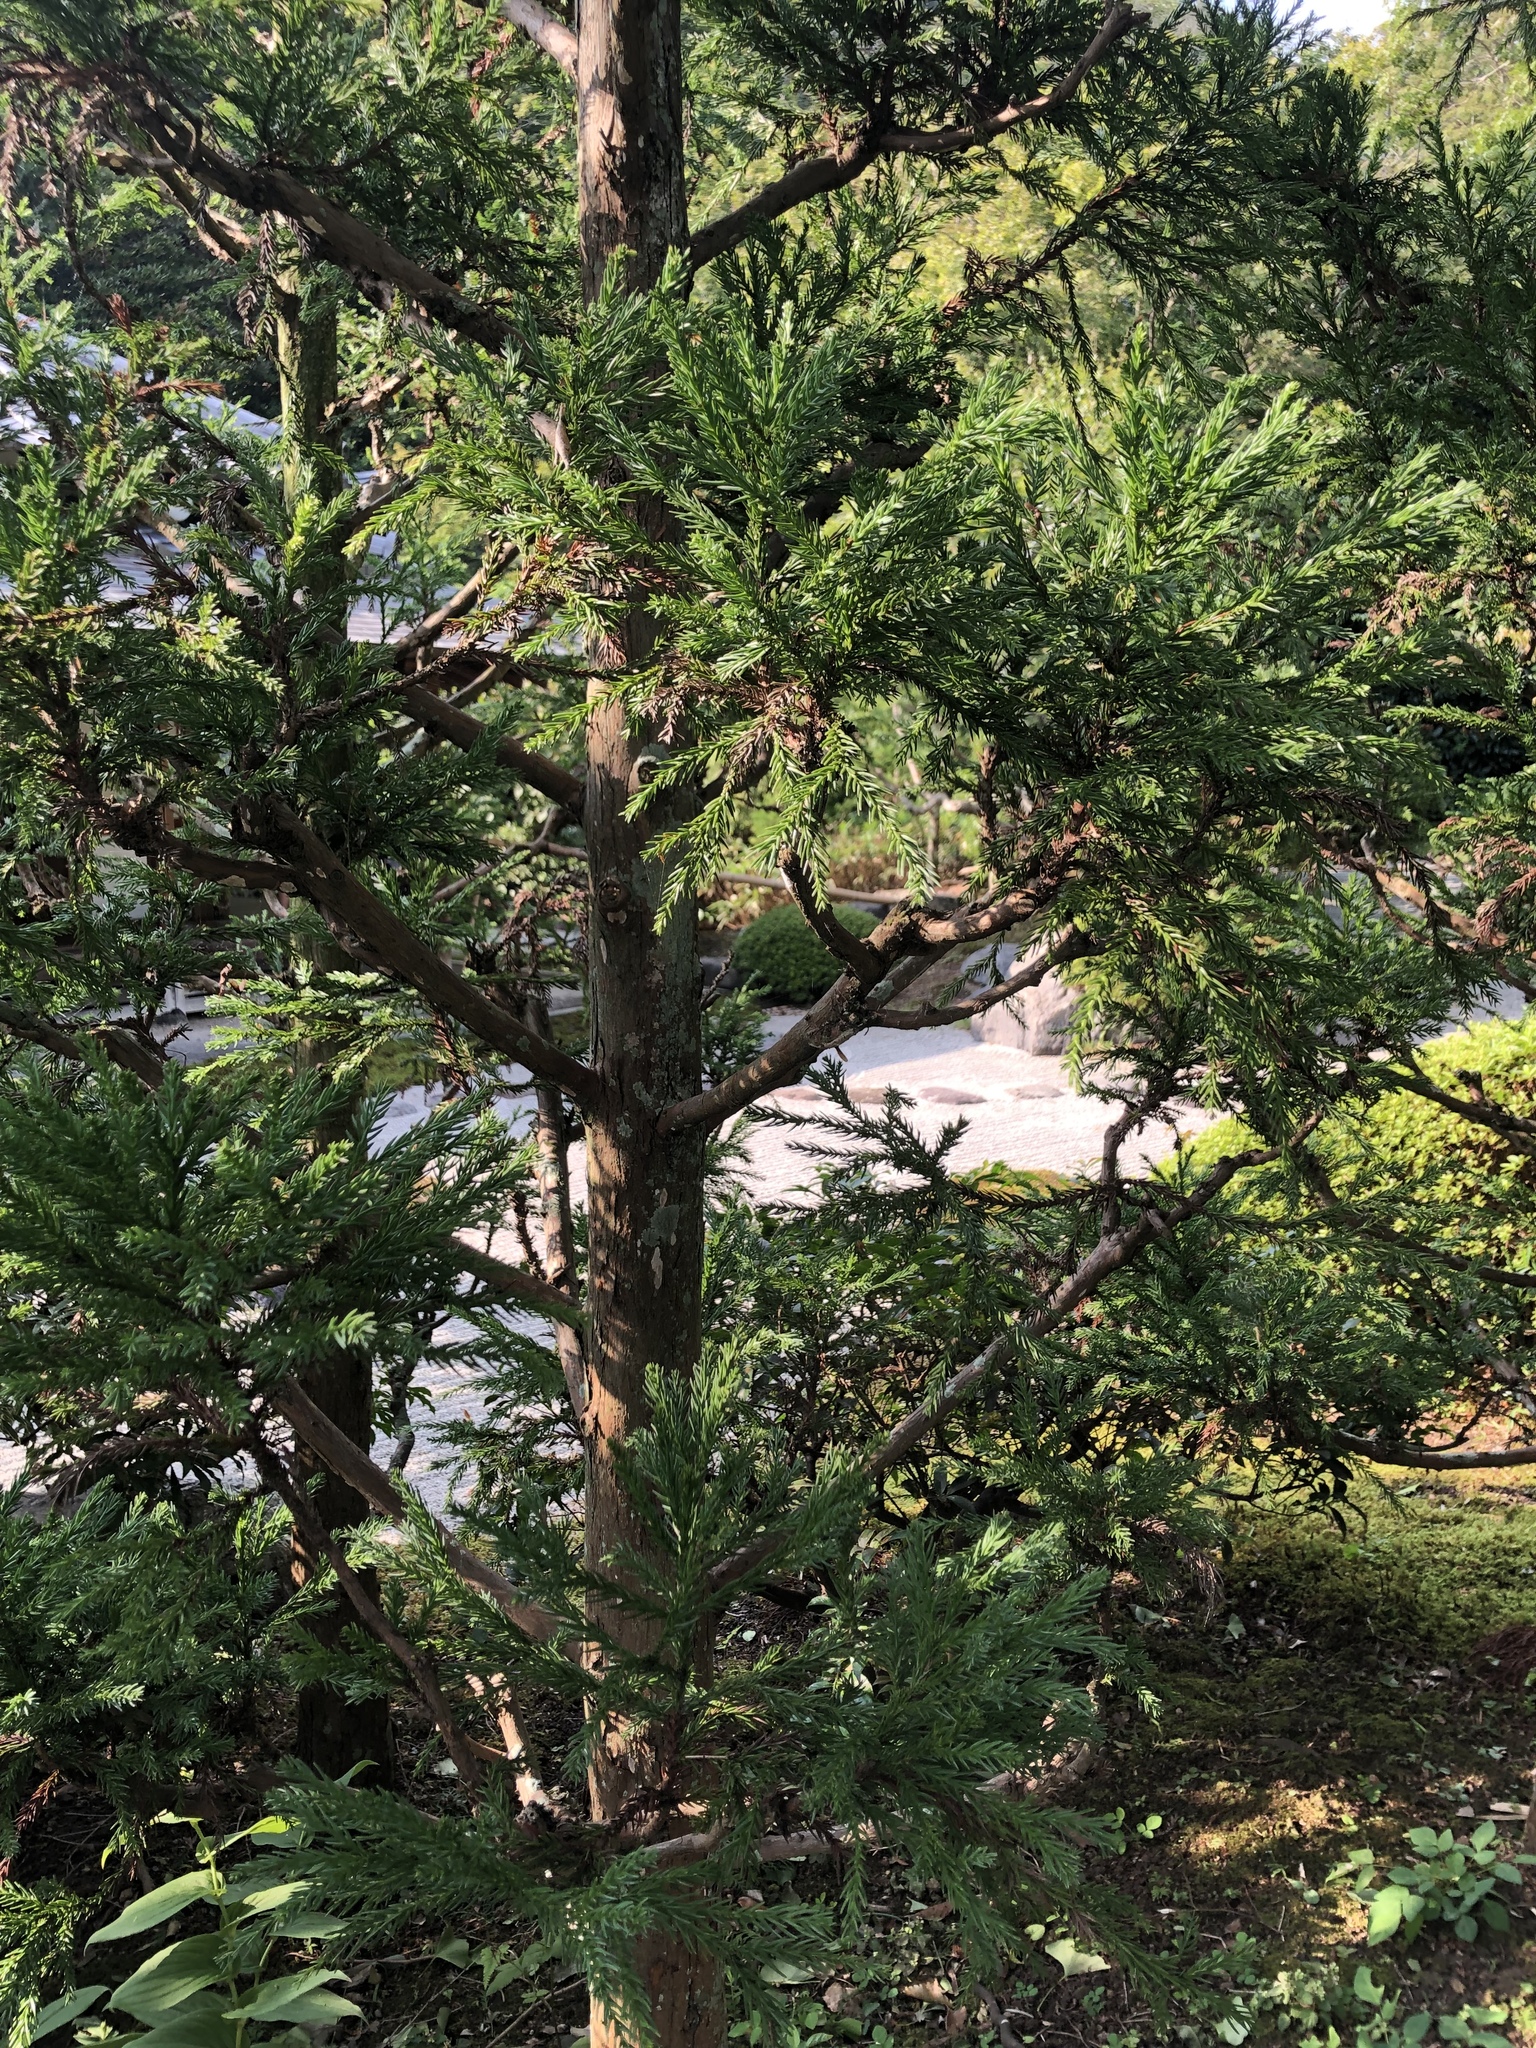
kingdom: Plantae
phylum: Tracheophyta
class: Pinopsida
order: Pinales
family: Cupressaceae
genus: Cryptomeria
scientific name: Cryptomeria japonica
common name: Japanese cedar
